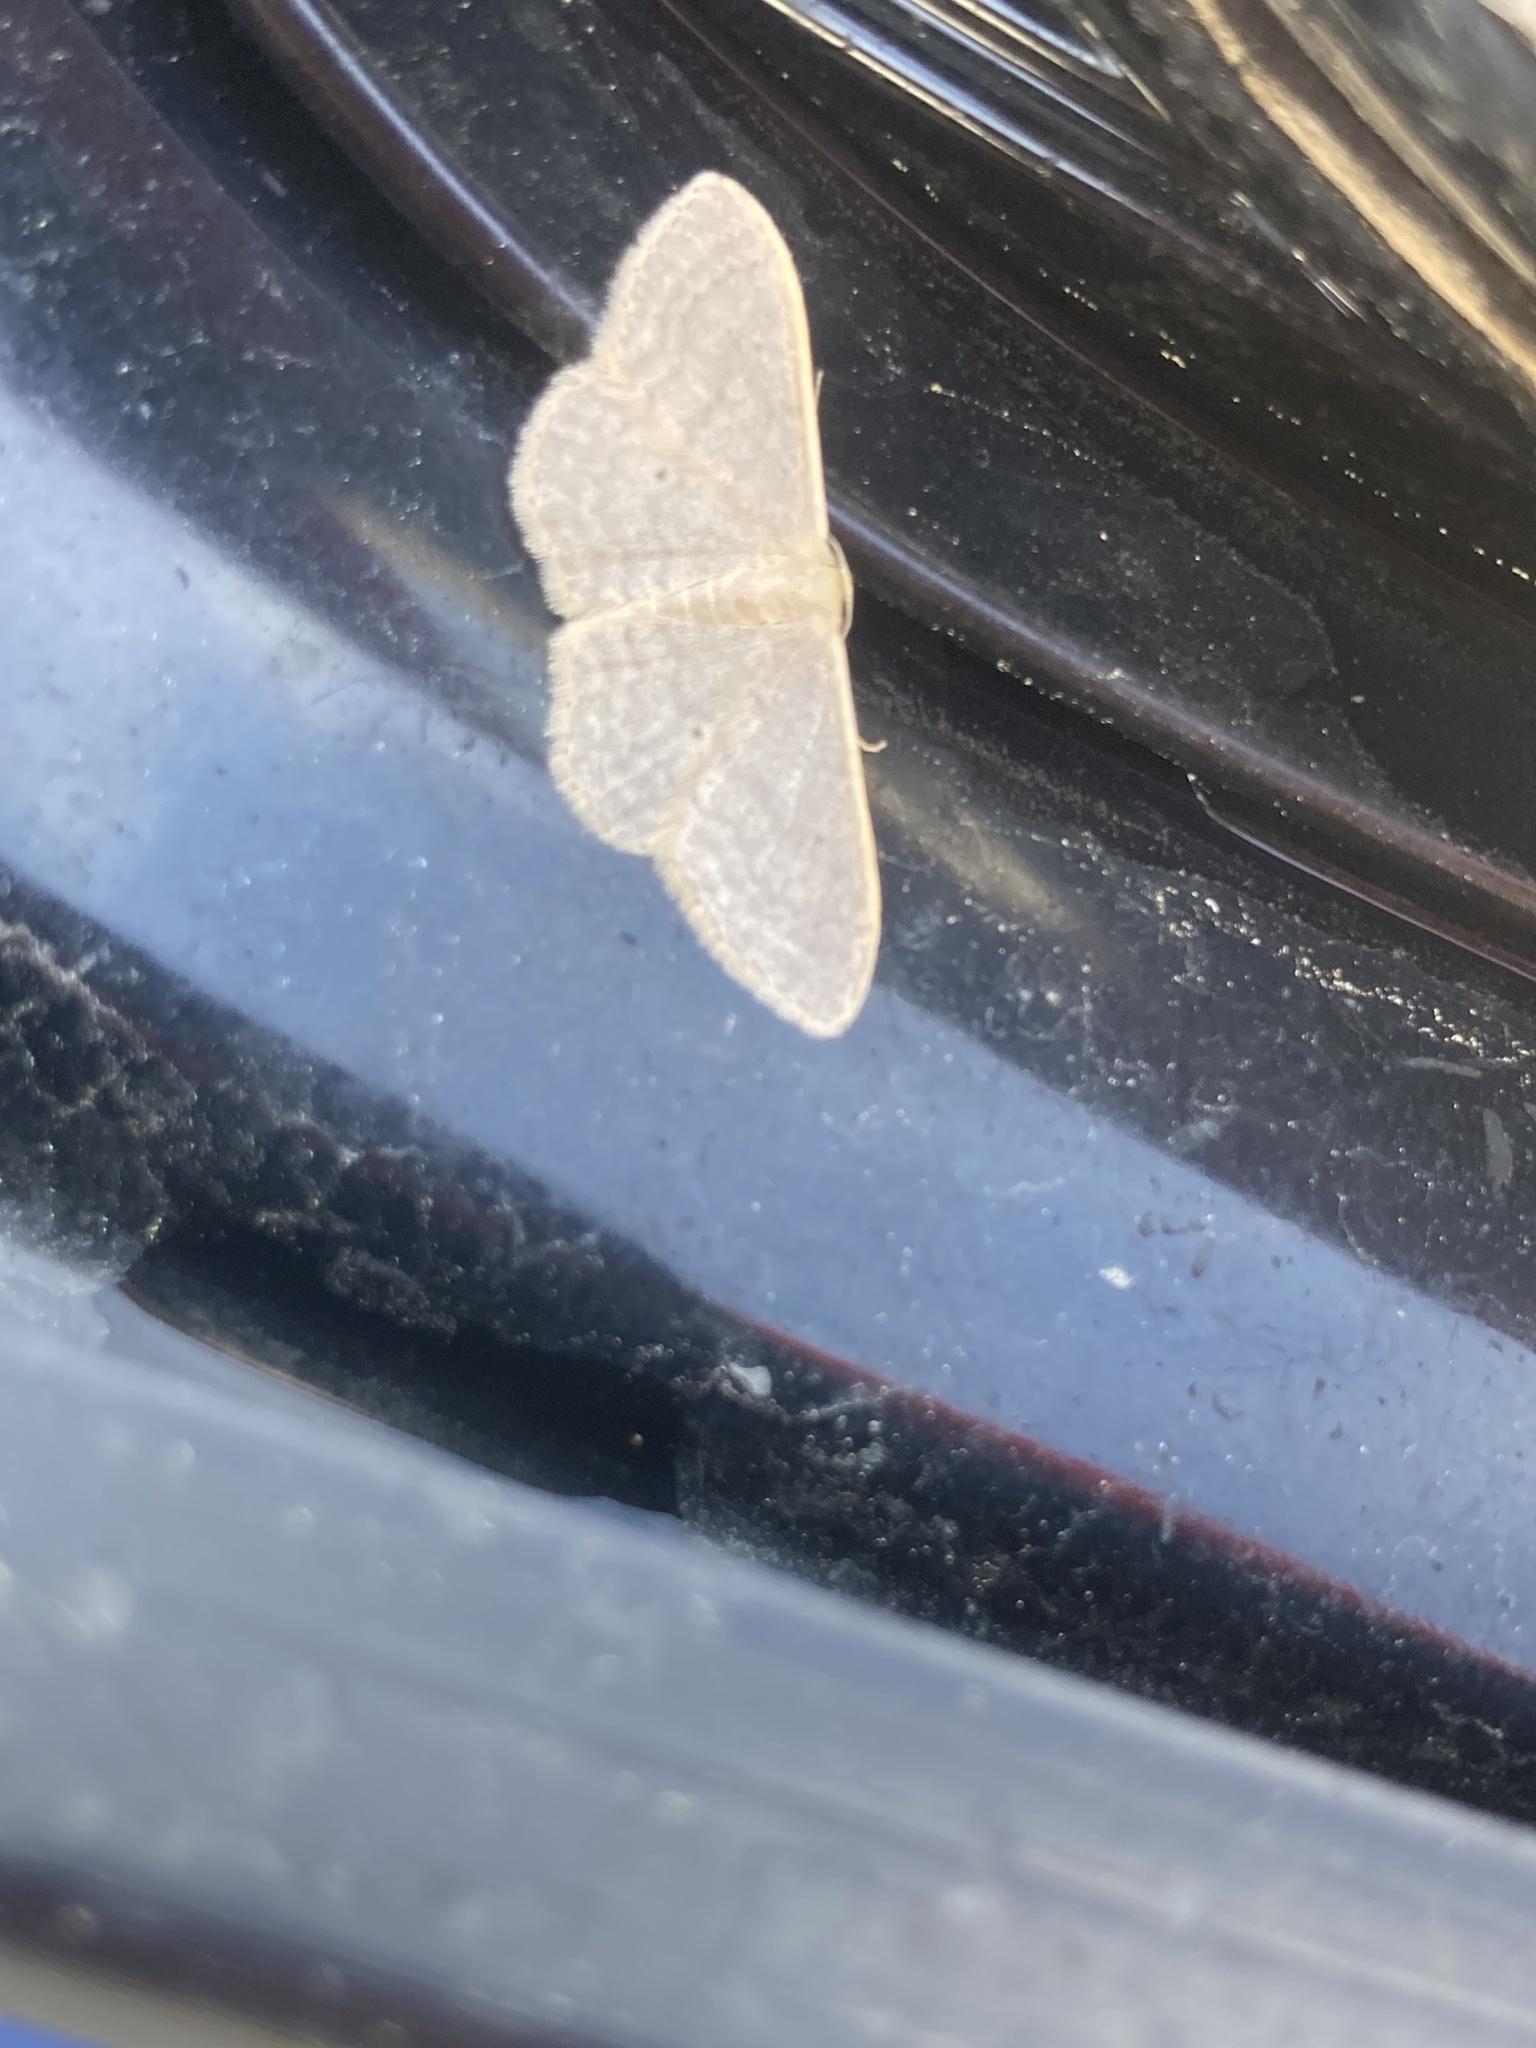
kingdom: Animalia
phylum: Arthropoda
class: Insecta
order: Lepidoptera
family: Geometridae
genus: Idaea
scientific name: Idaea distinctaria
